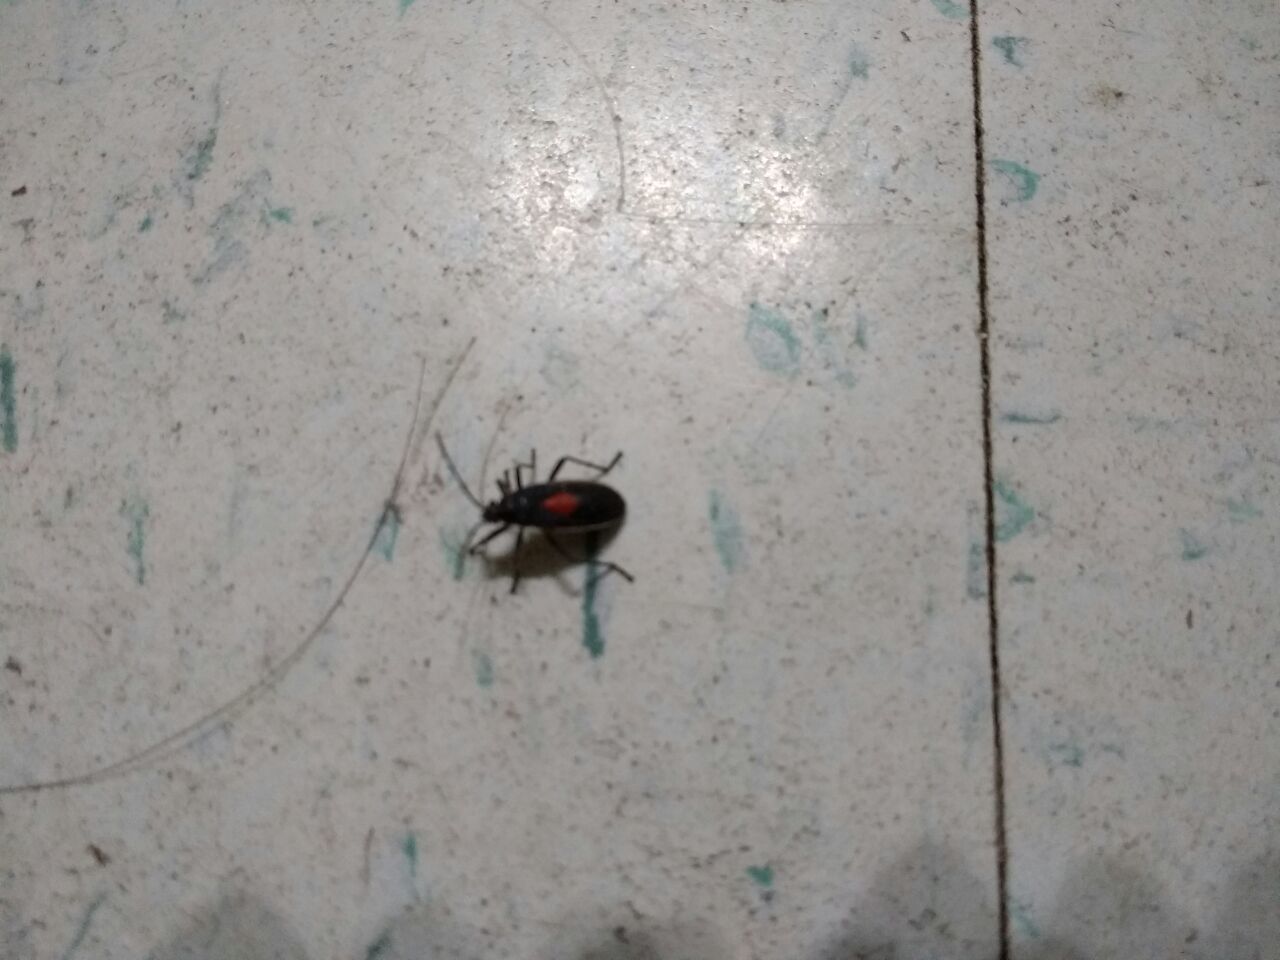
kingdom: Animalia
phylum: Arthropoda
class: Insecta
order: Hemiptera
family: Largidae
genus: Stenomacra
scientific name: Stenomacra marginella
